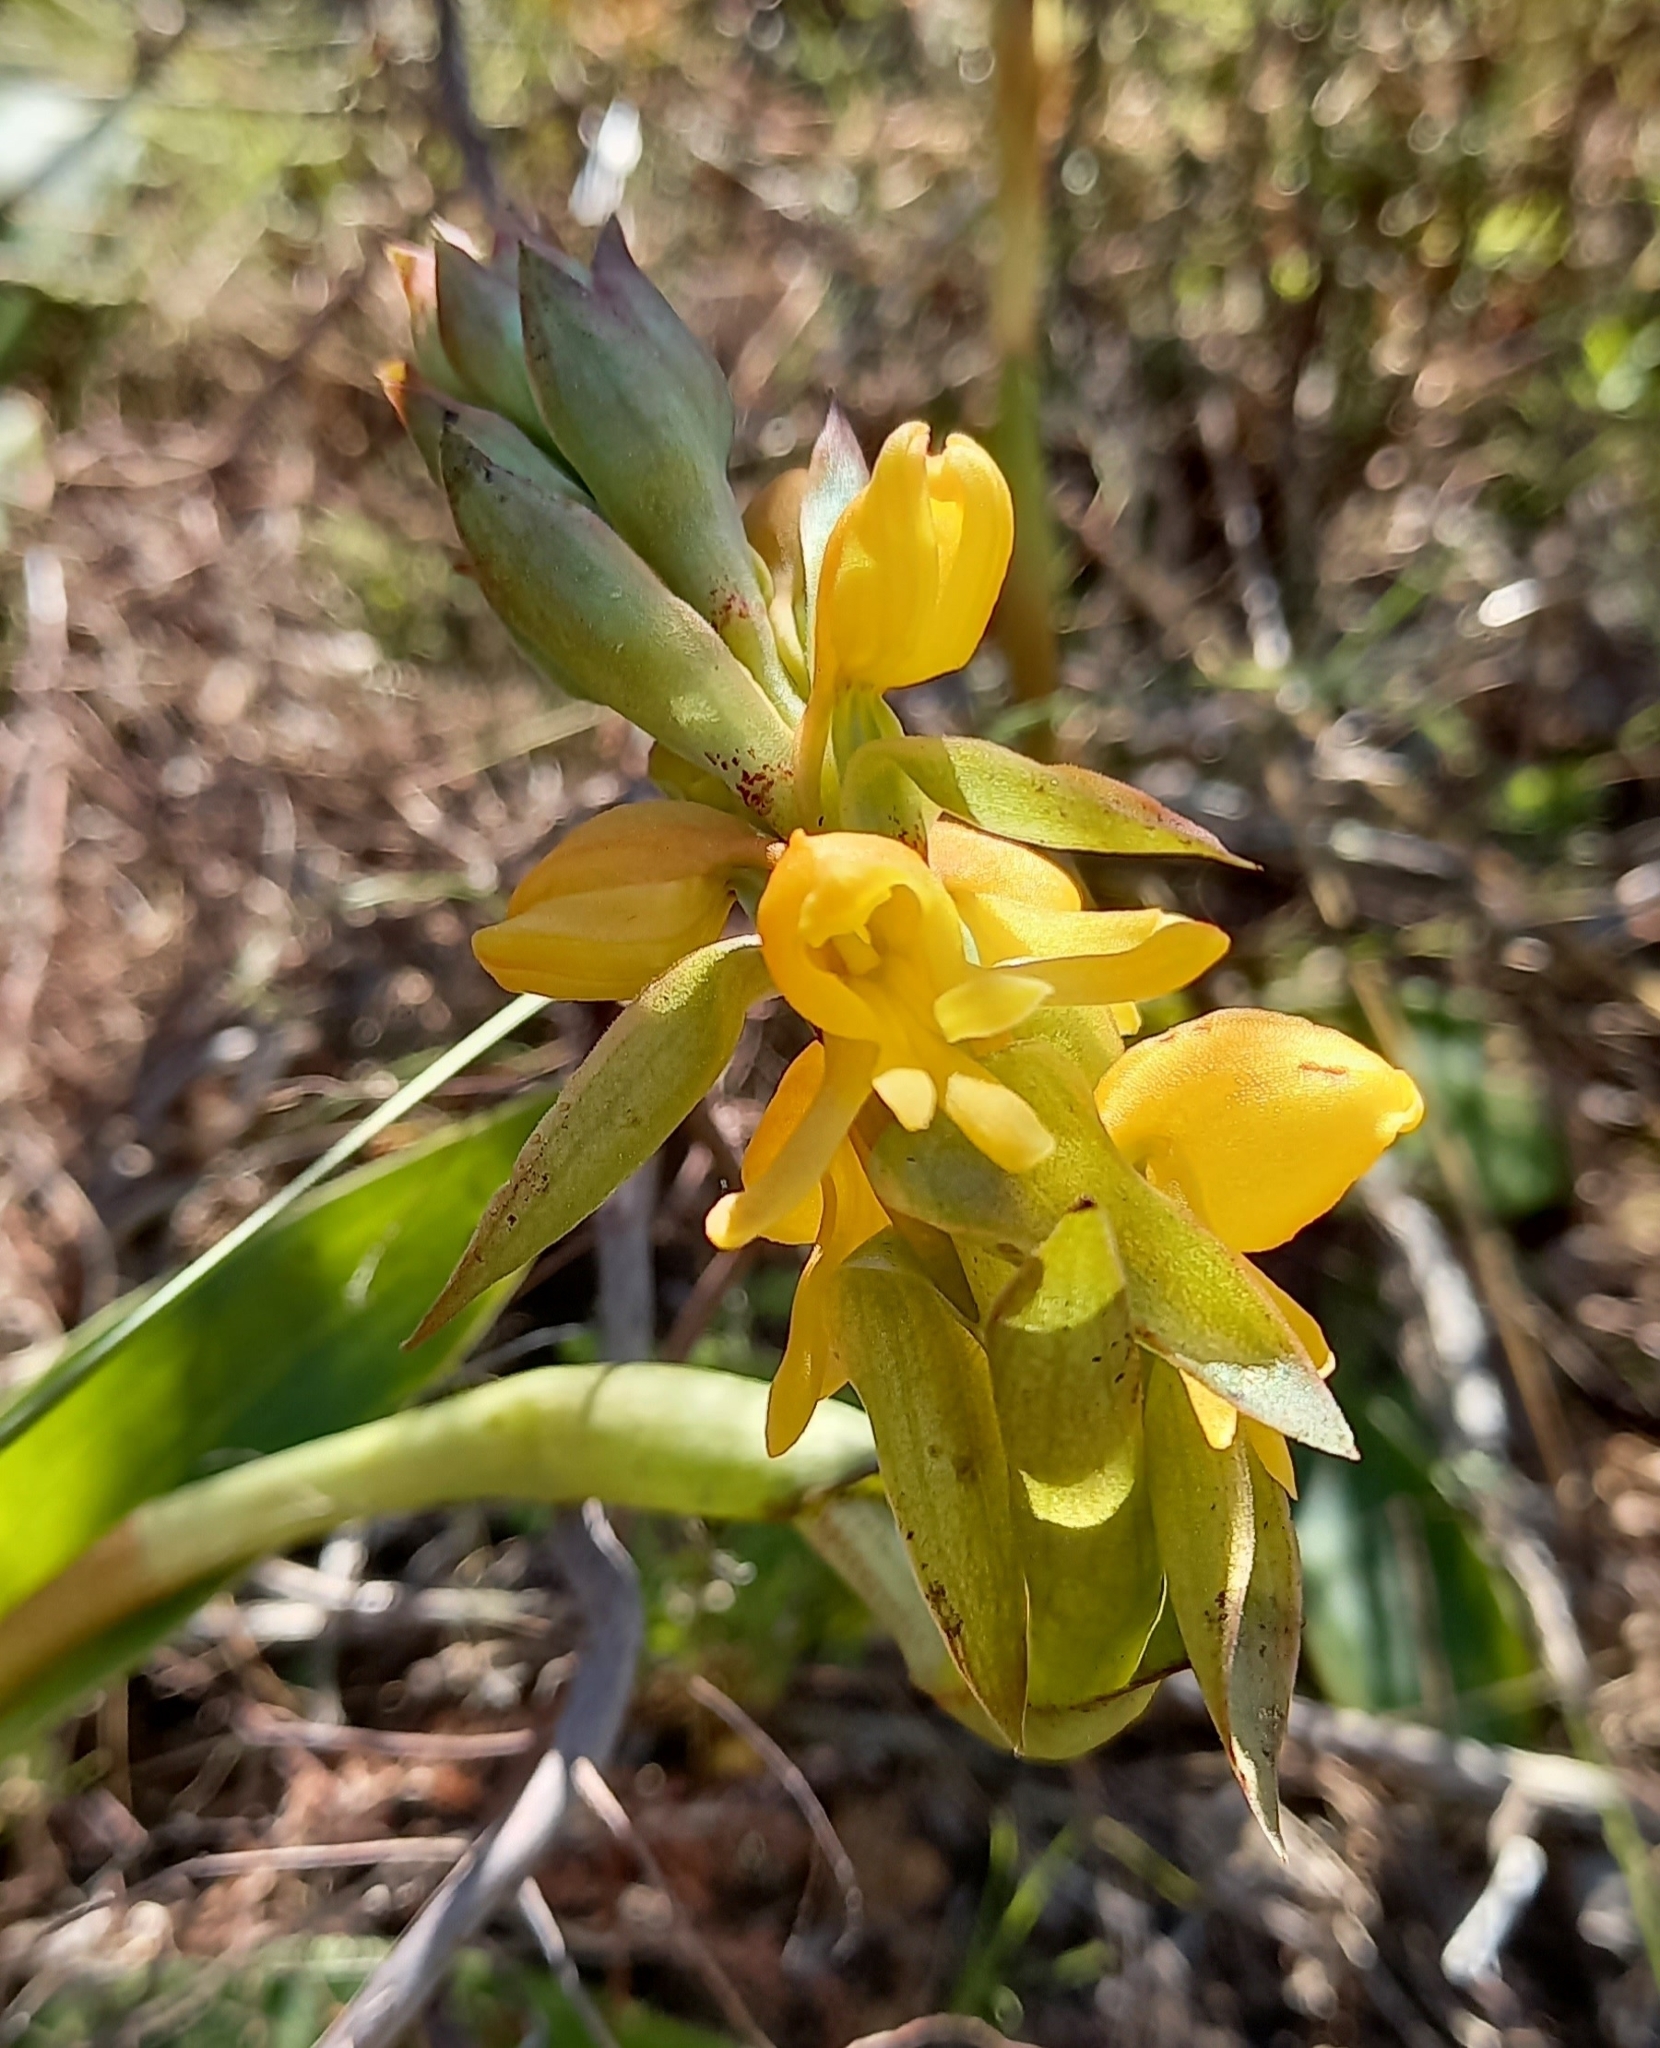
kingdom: Plantae
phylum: Tracheophyta
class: Liliopsida
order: Asparagales
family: Orchidaceae
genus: Satyrium
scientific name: Satyrium coriifolium
